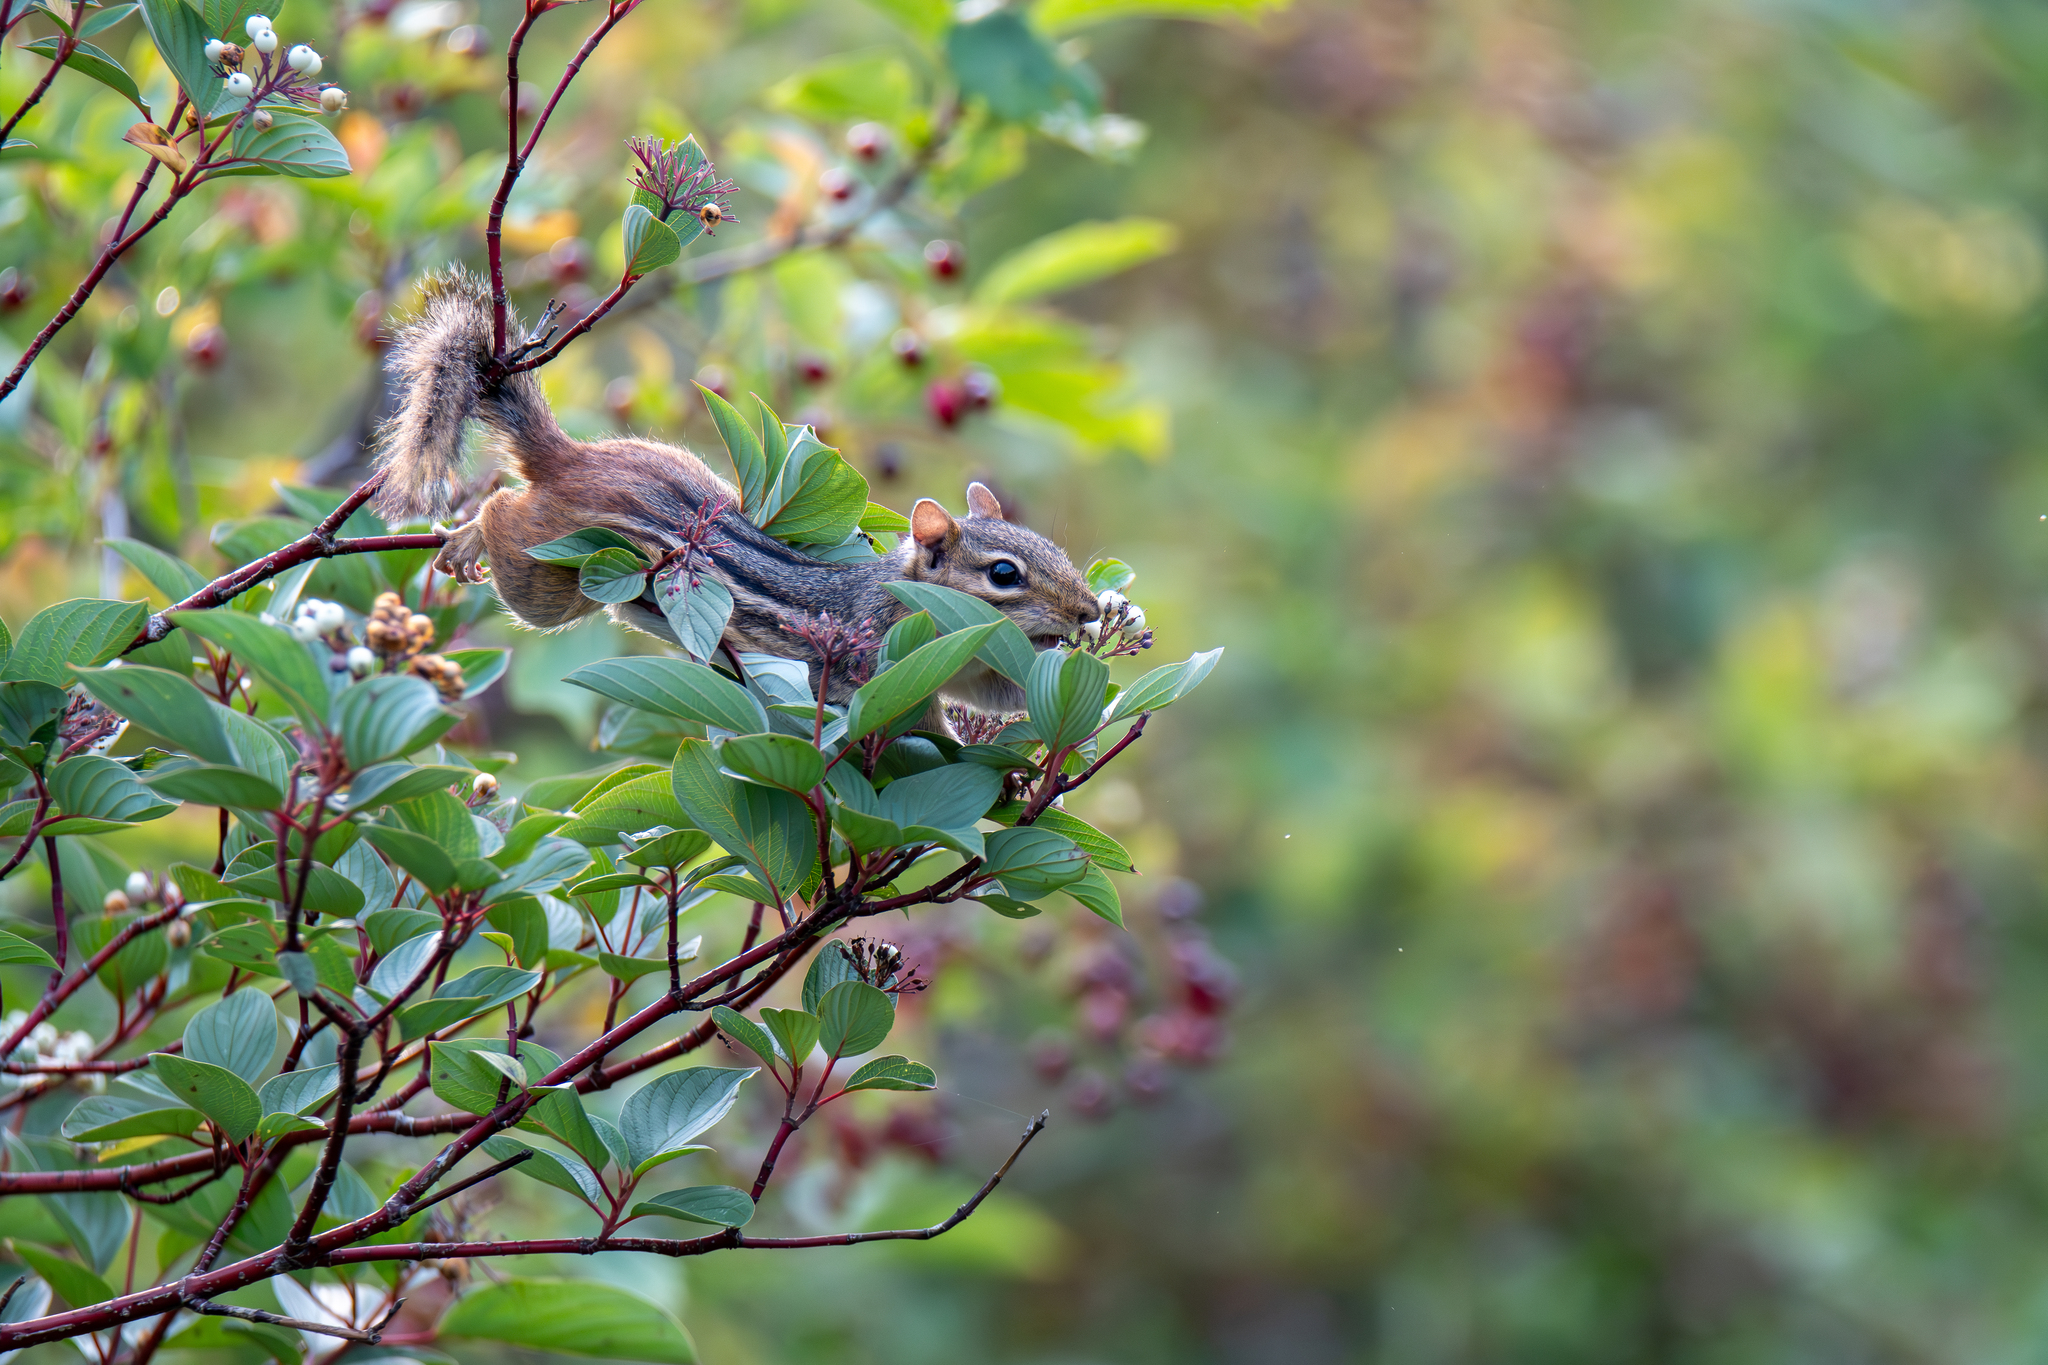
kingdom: Animalia
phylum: Chordata
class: Mammalia
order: Rodentia
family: Sciuridae
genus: Tamias
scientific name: Tamias striatus
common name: Eastern chipmunk
